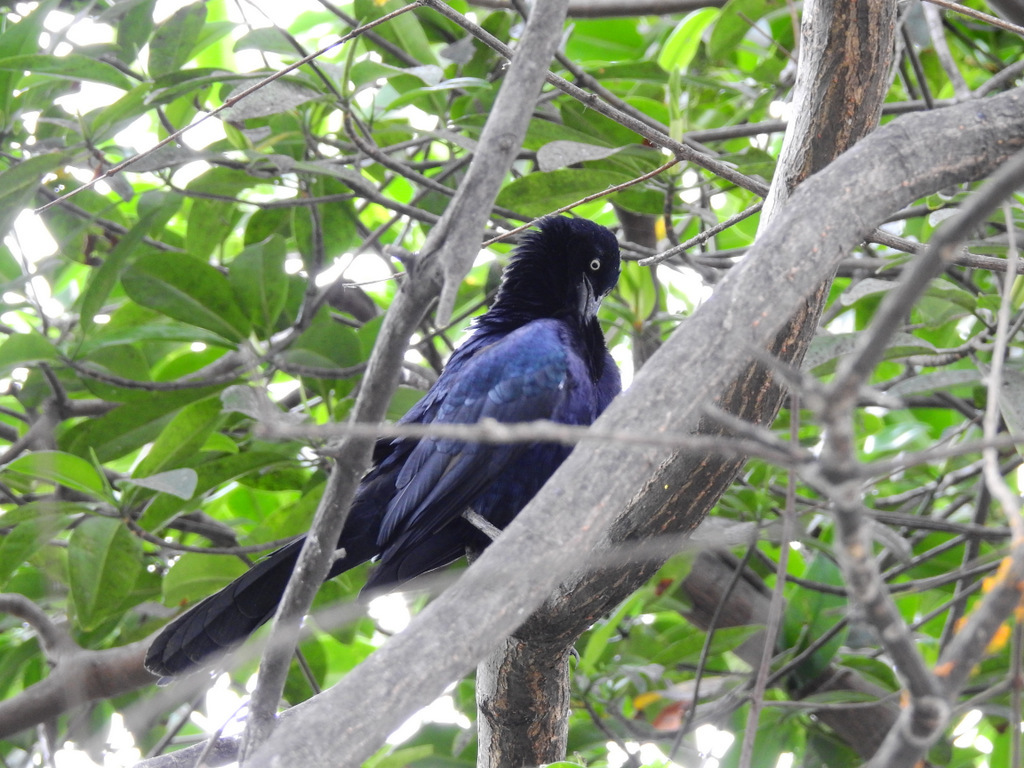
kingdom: Animalia
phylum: Chordata
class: Aves
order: Passeriformes
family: Icteridae
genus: Quiscalus
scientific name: Quiscalus mexicanus
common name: Great-tailed grackle
